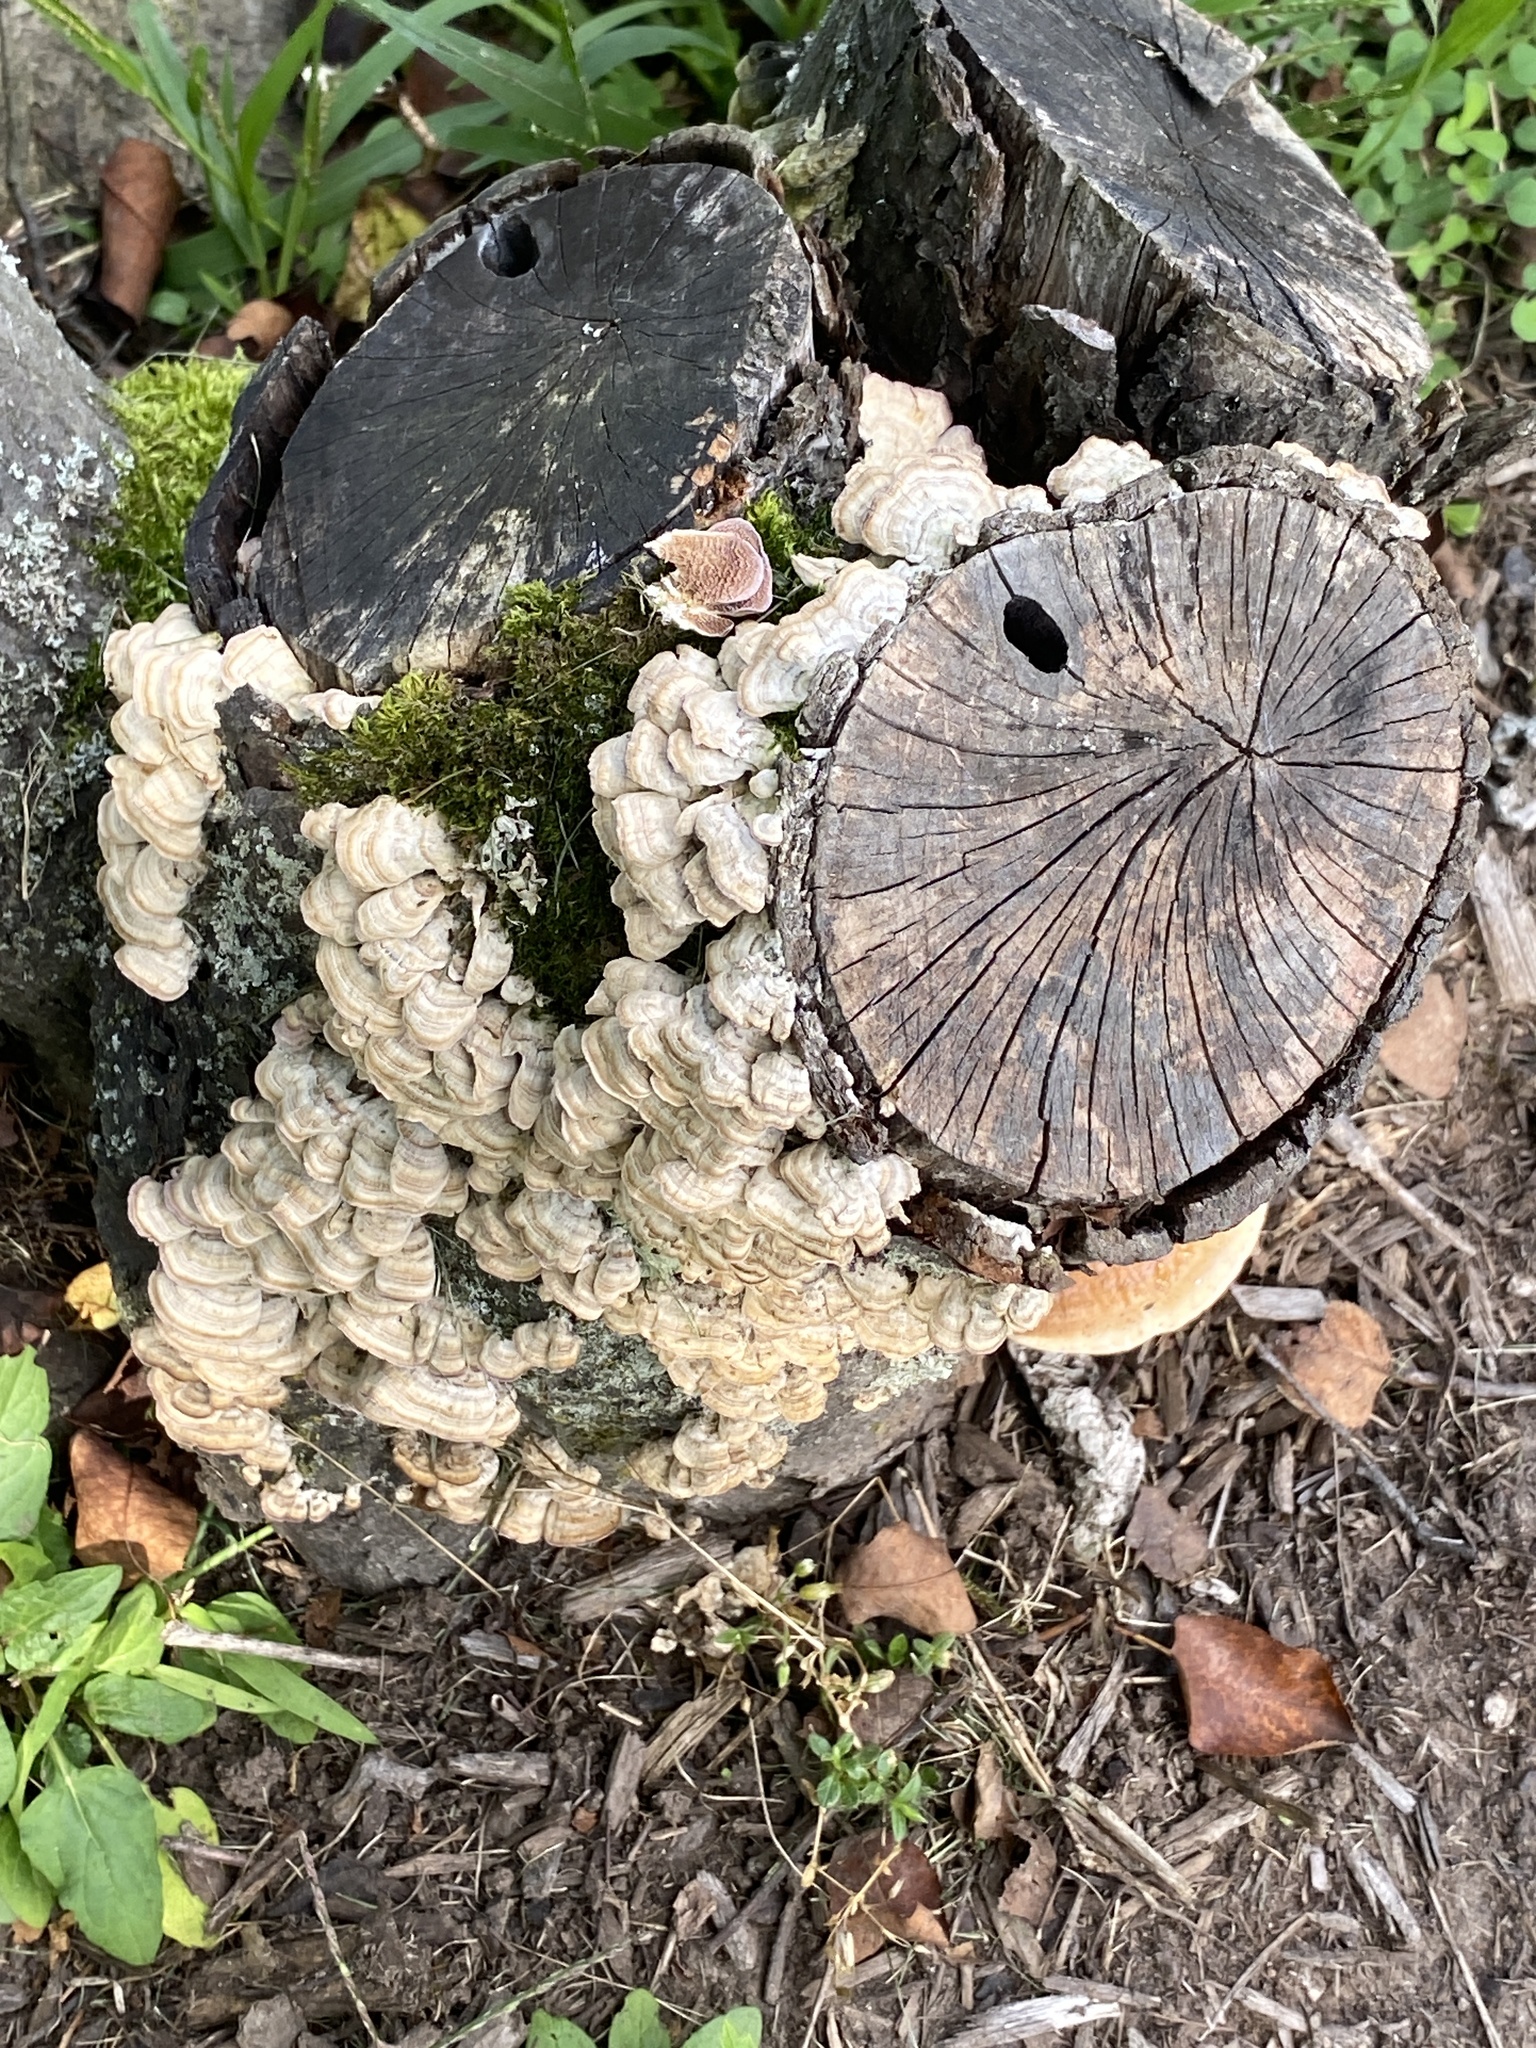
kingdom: Fungi
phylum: Basidiomycota
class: Agaricomycetes
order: Hymenochaetales
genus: Trichaptum
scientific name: Trichaptum biforme
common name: Violet-toothed polypore
